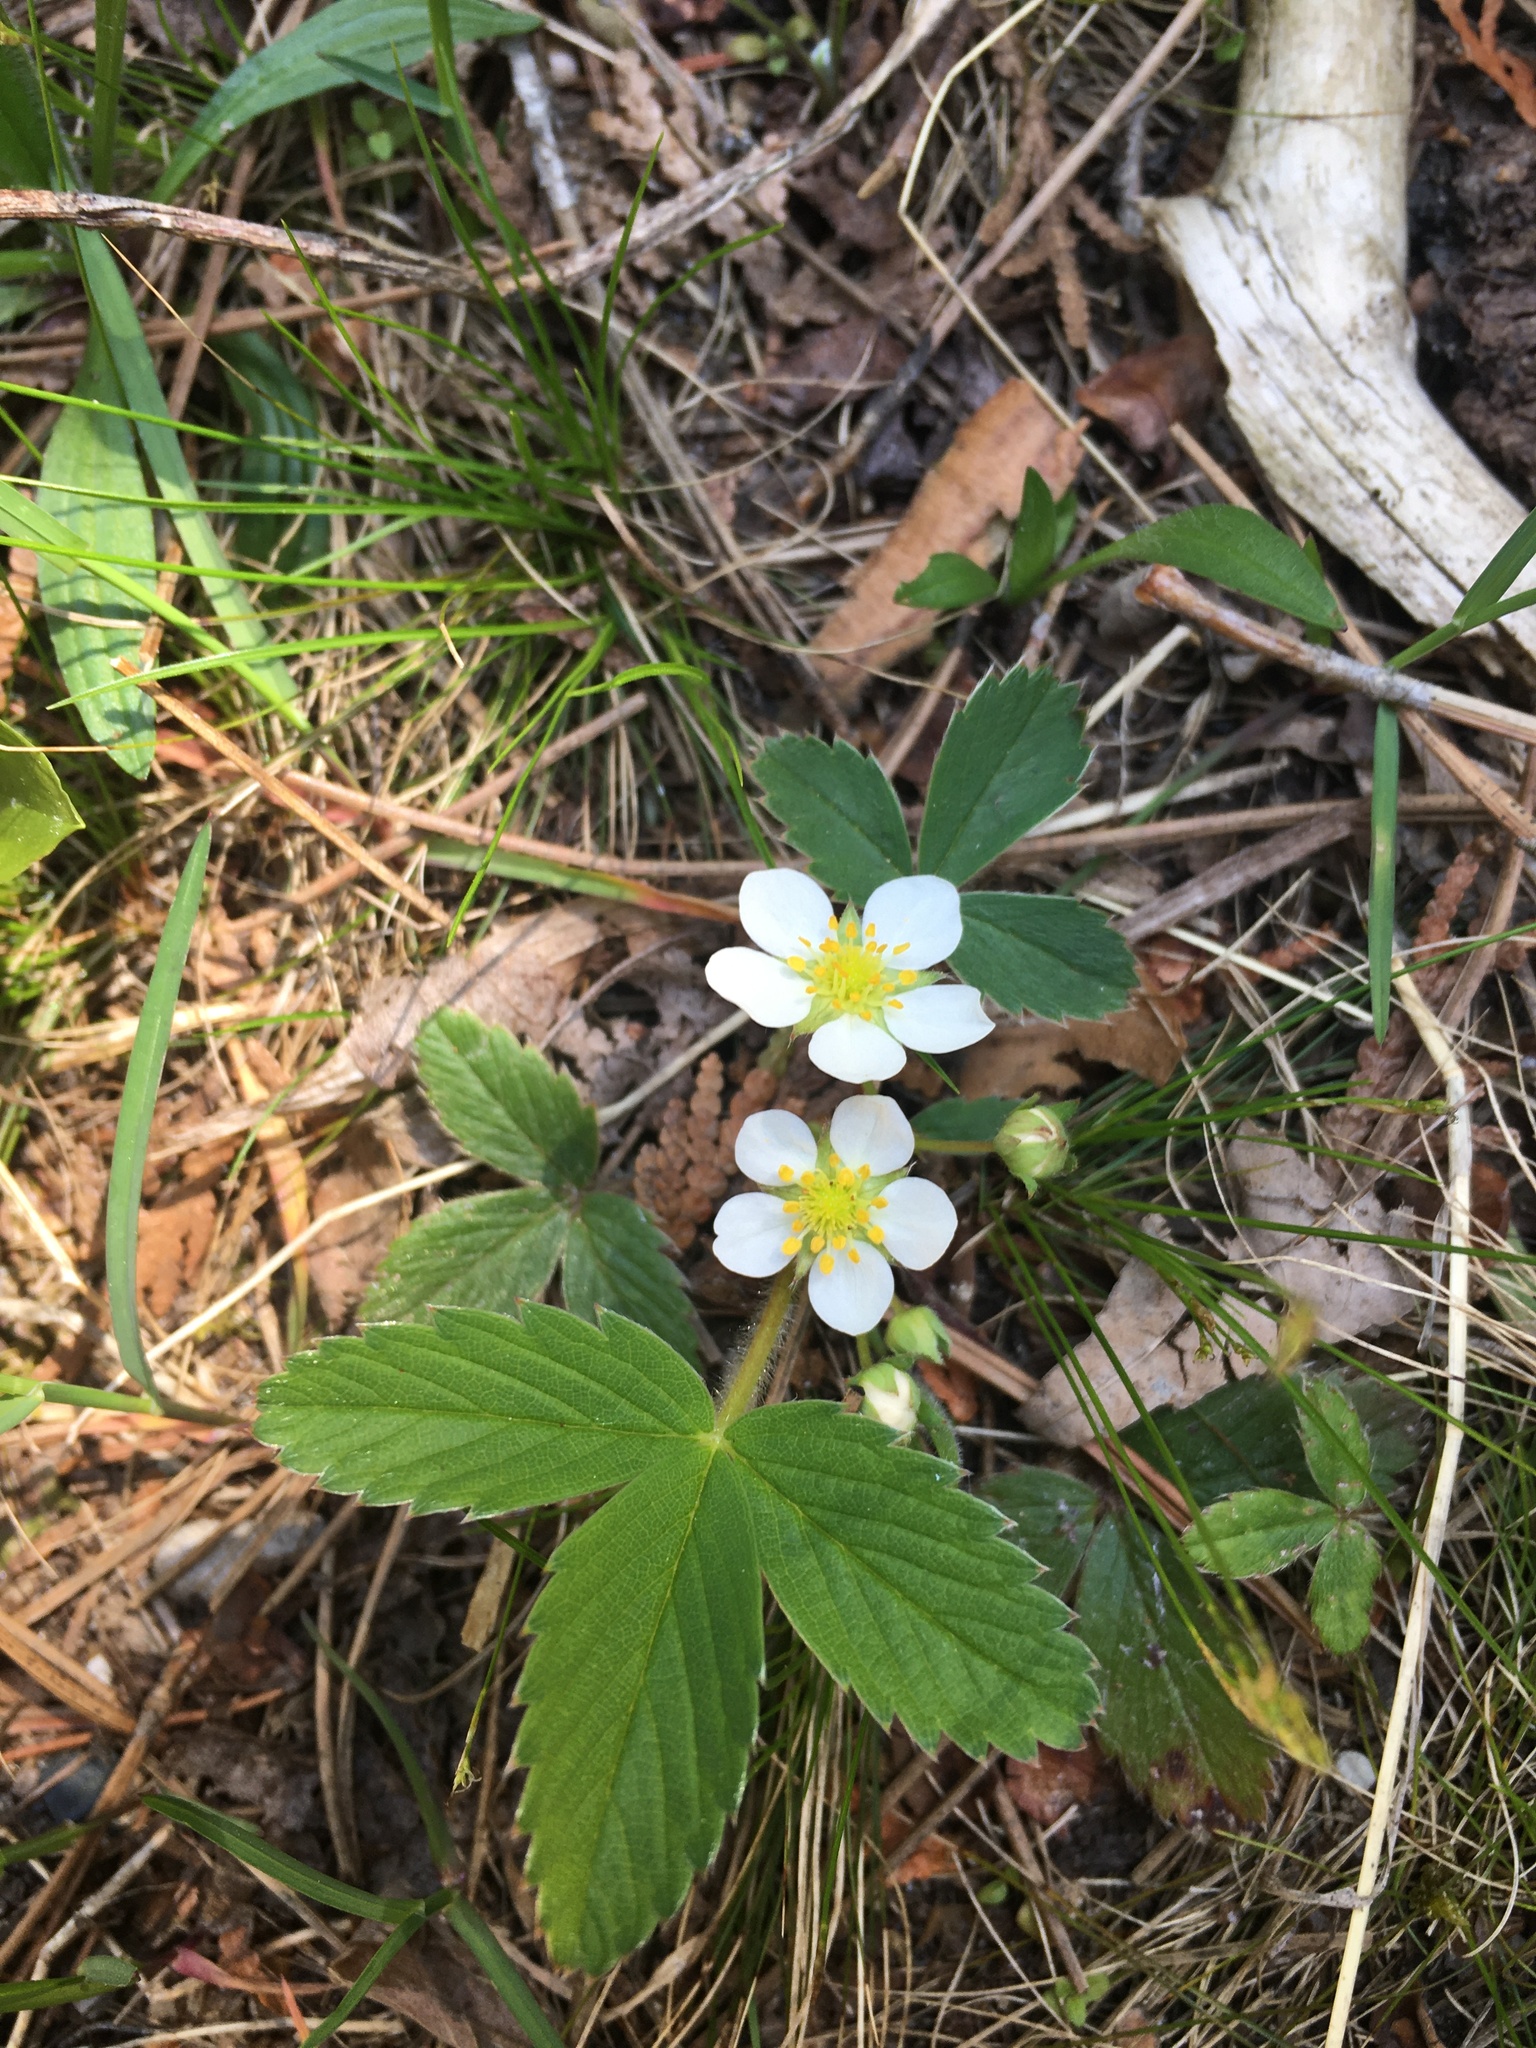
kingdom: Plantae
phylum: Tracheophyta
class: Magnoliopsida
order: Rosales
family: Rosaceae
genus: Fragaria
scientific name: Fragaria virginiana
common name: Thickleaved wild strawberry
